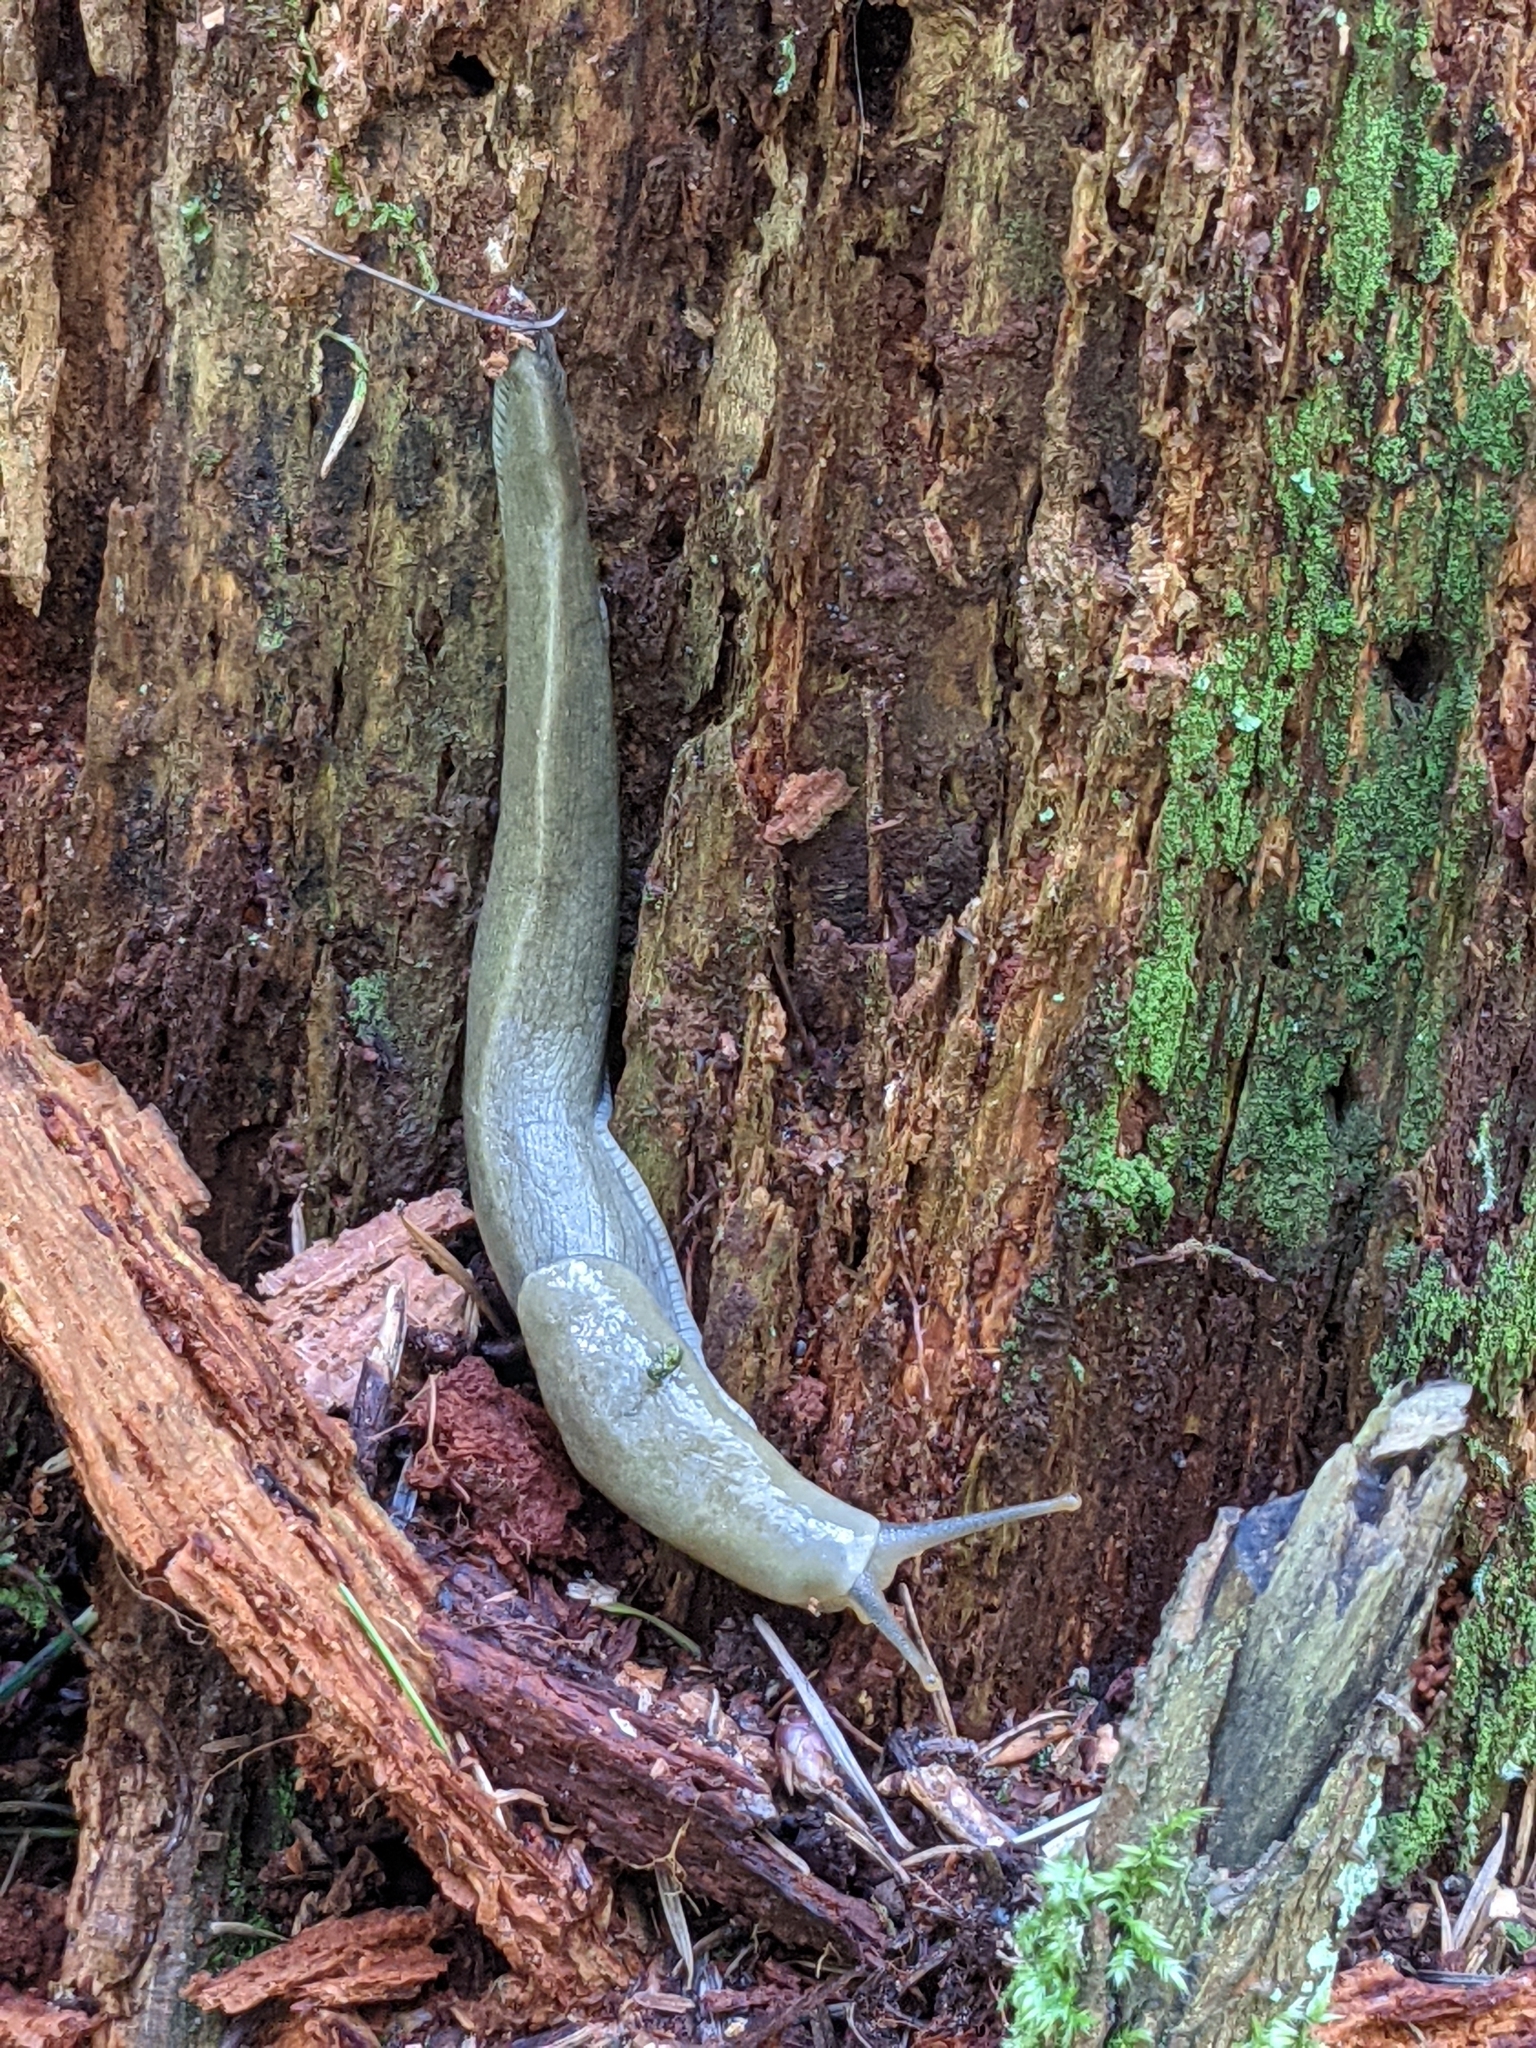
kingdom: Animalia
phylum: Mollusca
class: Gastropoda
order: Stylommatophora
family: Ariolimacidae
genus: Ariolimax
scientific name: Ariolimax columbianus
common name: Pacific banana slug
